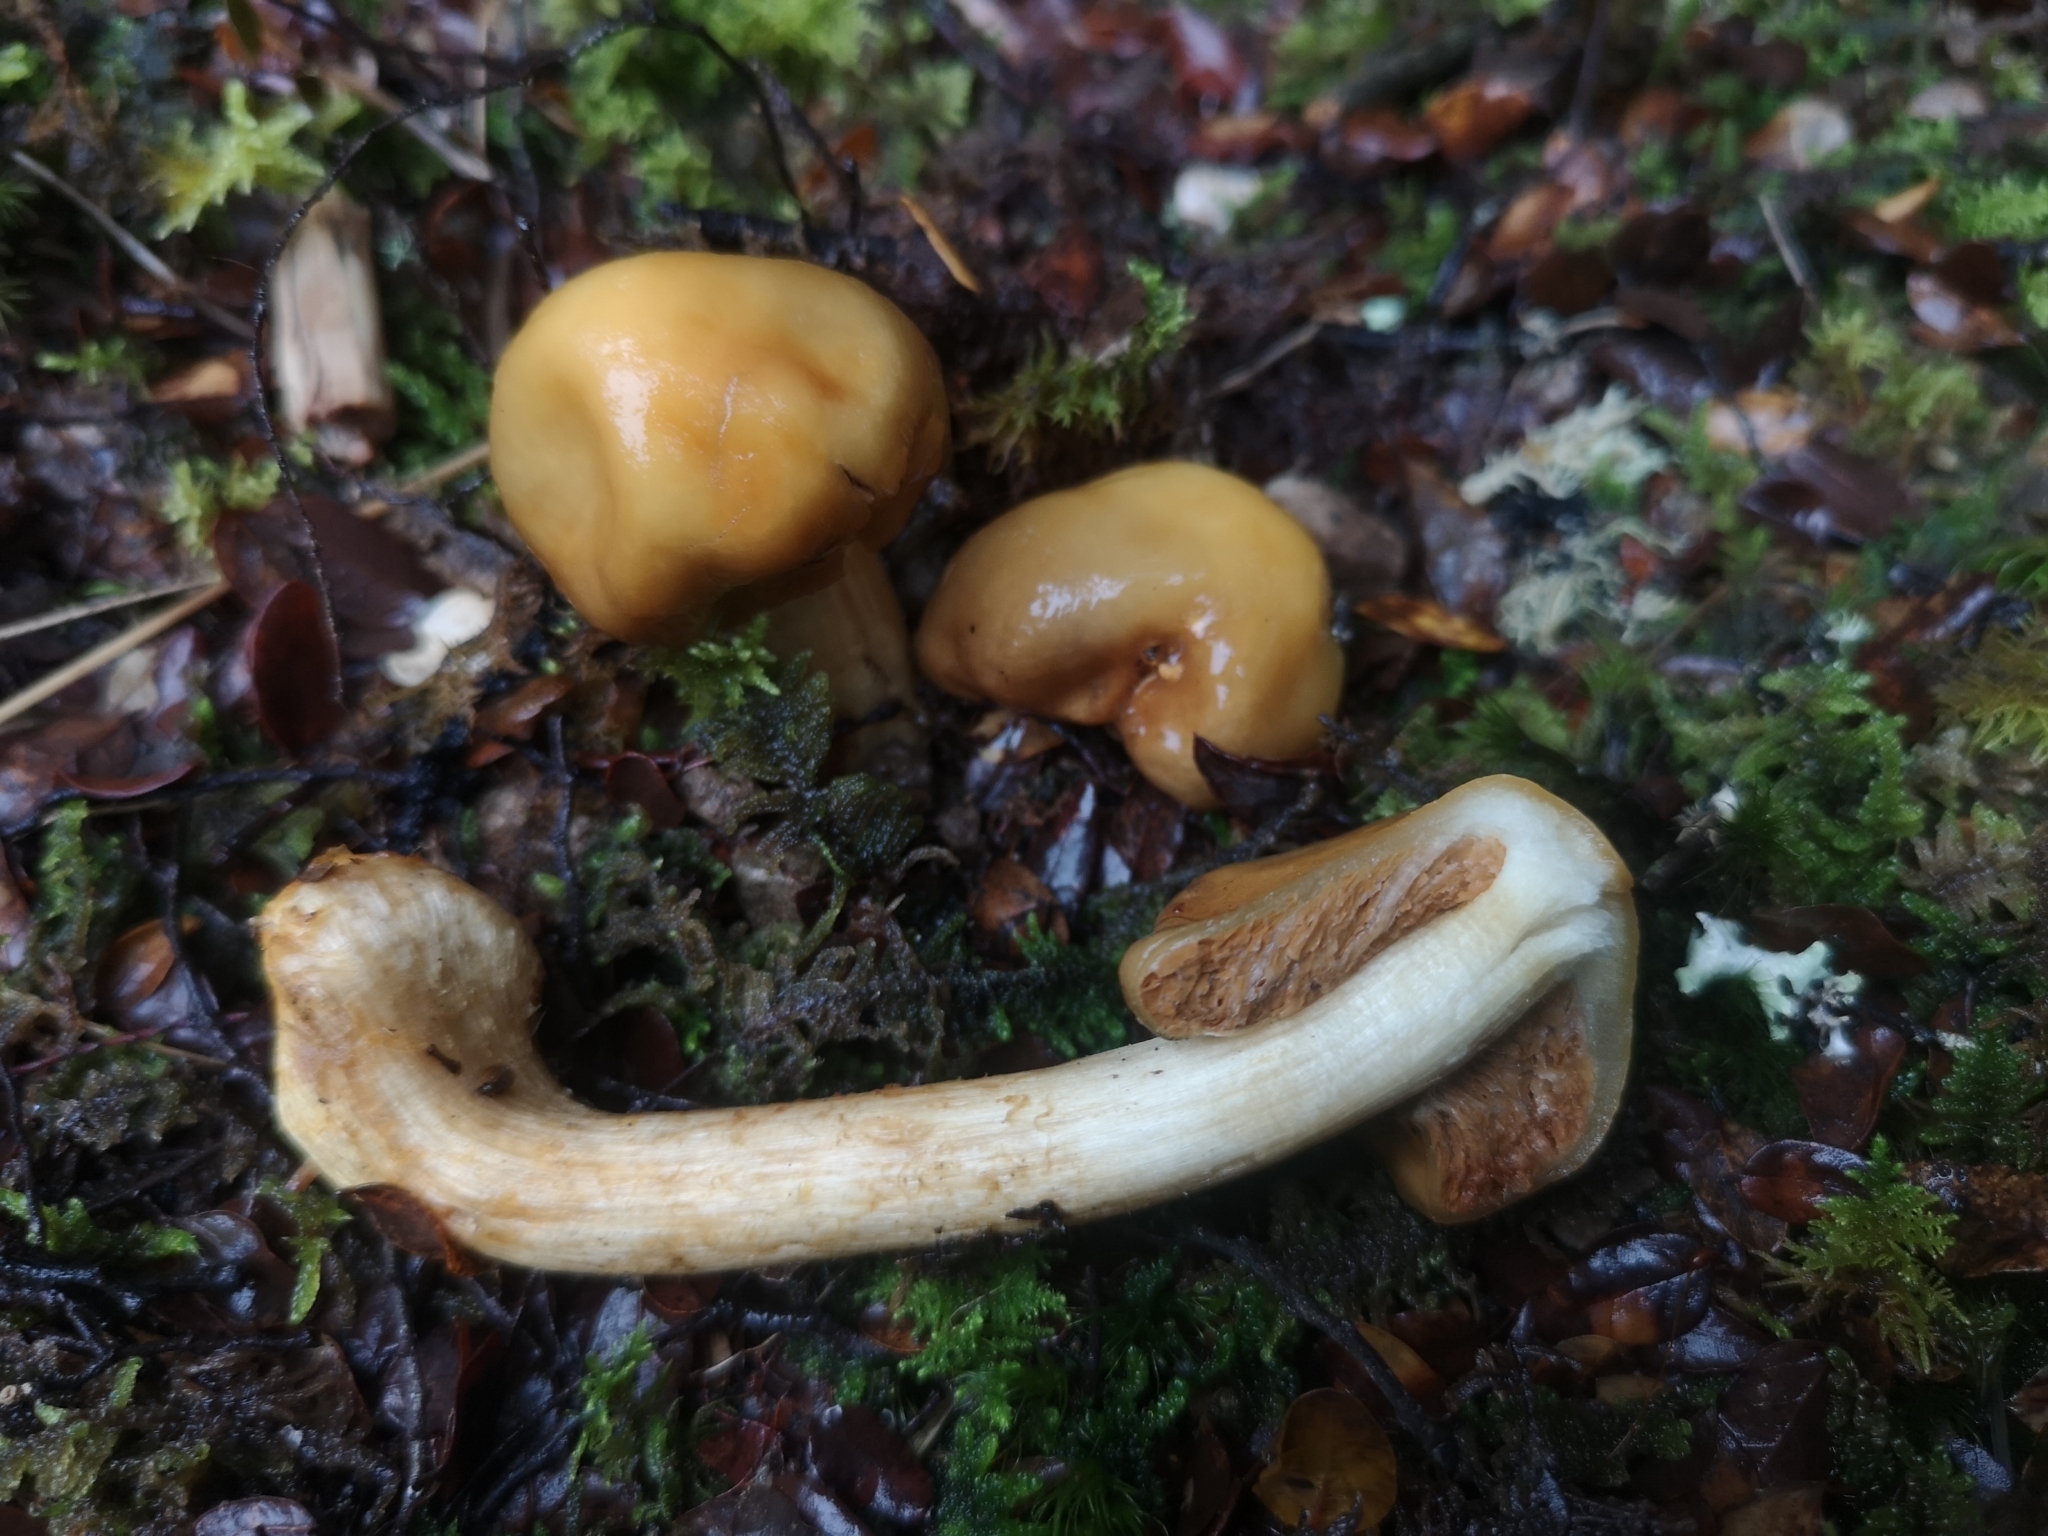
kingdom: Fungi
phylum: Basidiomycota
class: Agaricomycetes
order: Agaricales
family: Cortinariaceae
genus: Cortinarius
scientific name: Cortinarius epiphaeus
